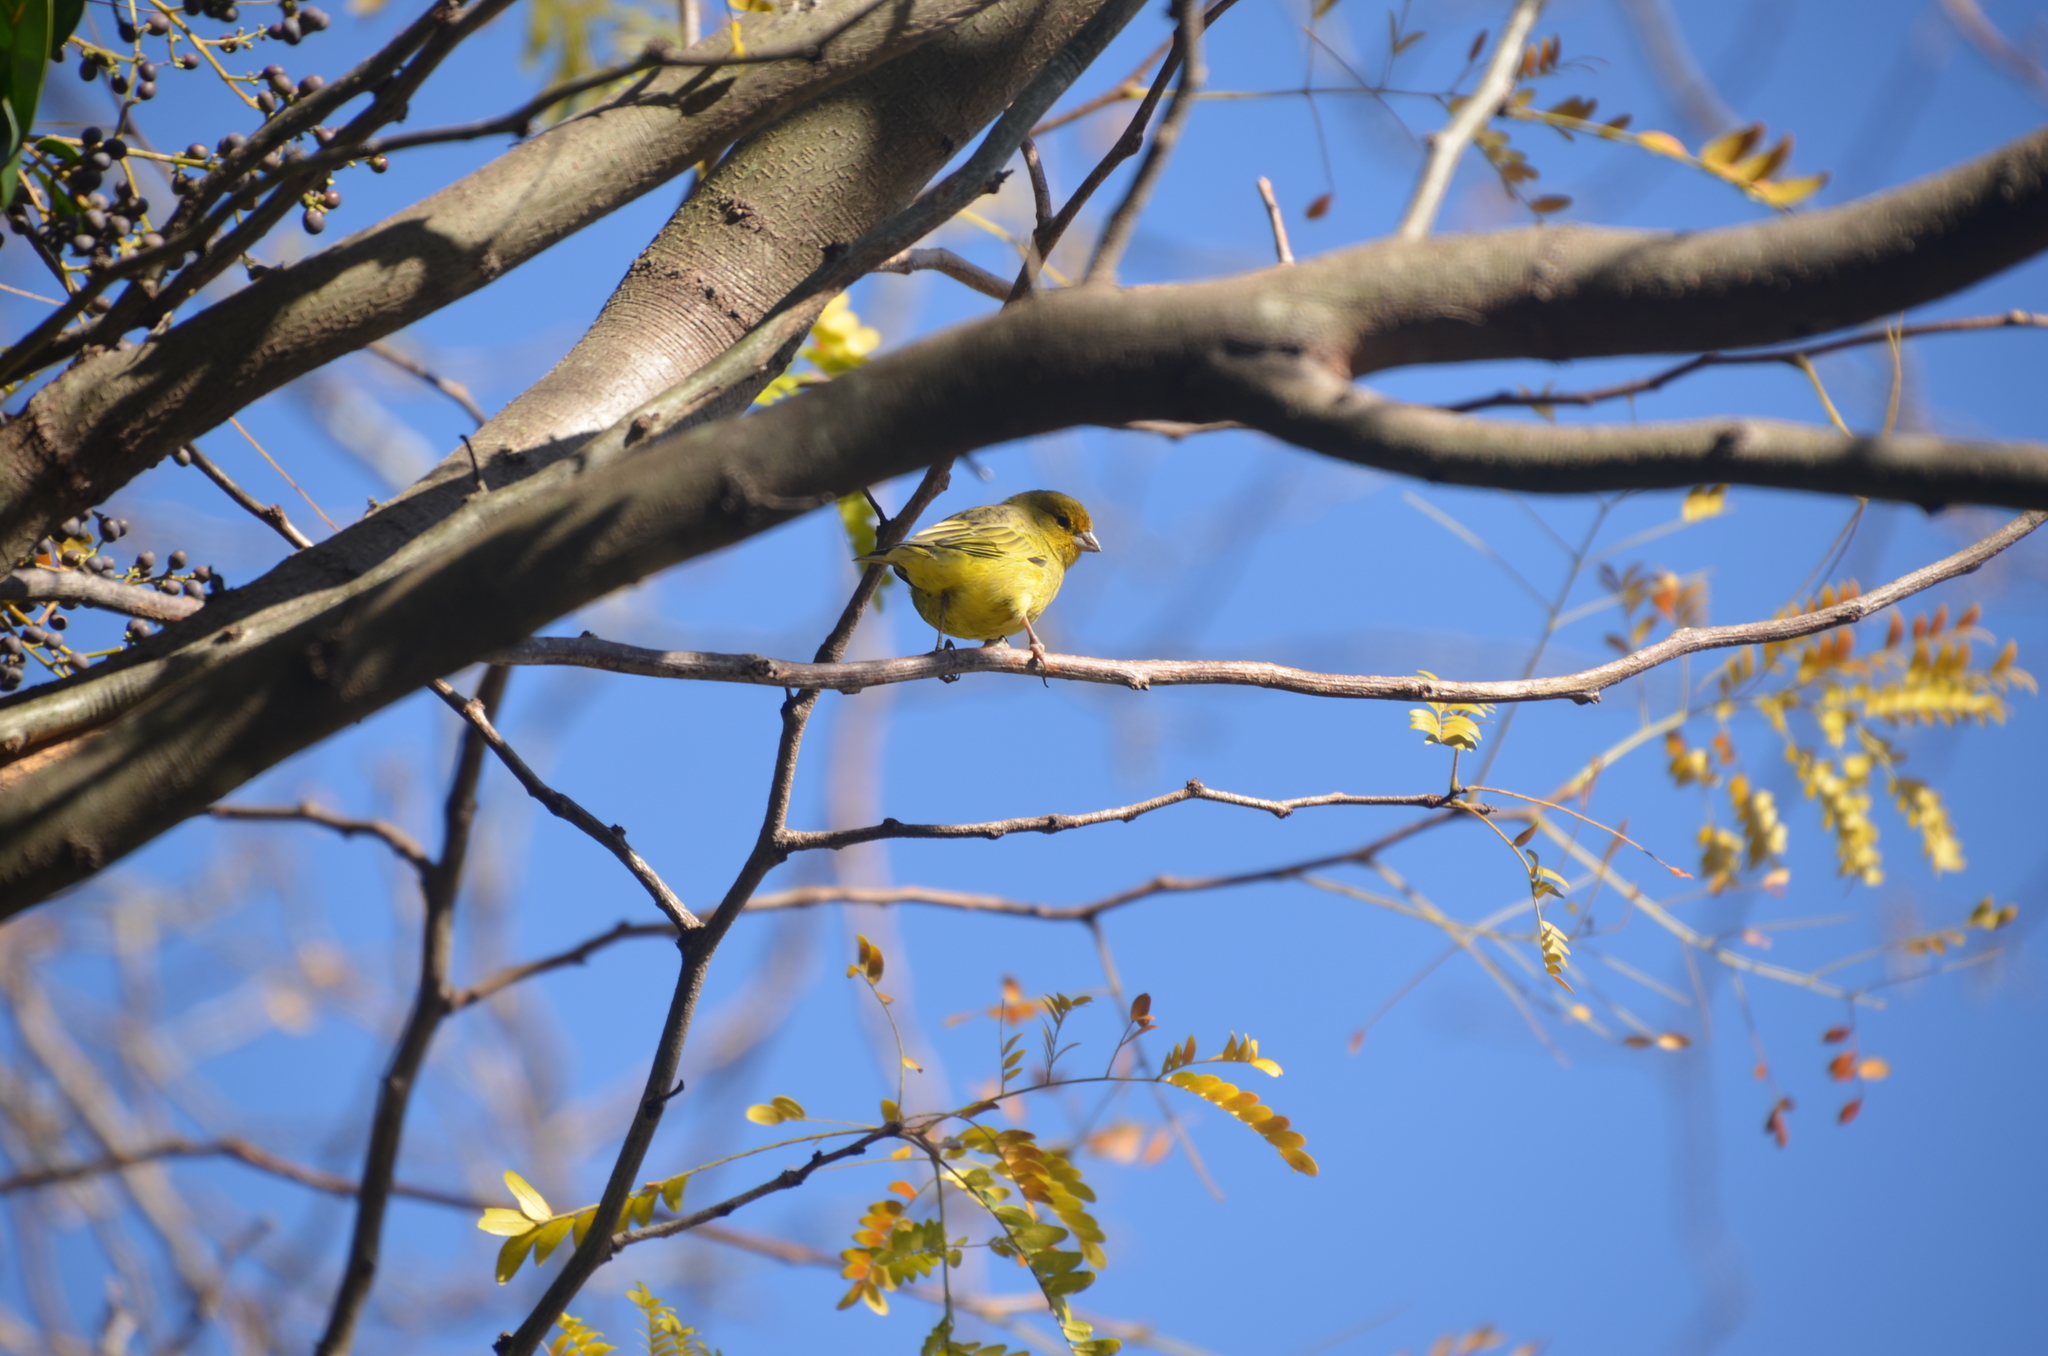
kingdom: Animalia
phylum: Chordata
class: Aves
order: Passeriformes
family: Thraupidae
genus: Sicalis
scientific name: Sicalis flaveola
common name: Saffron finch
